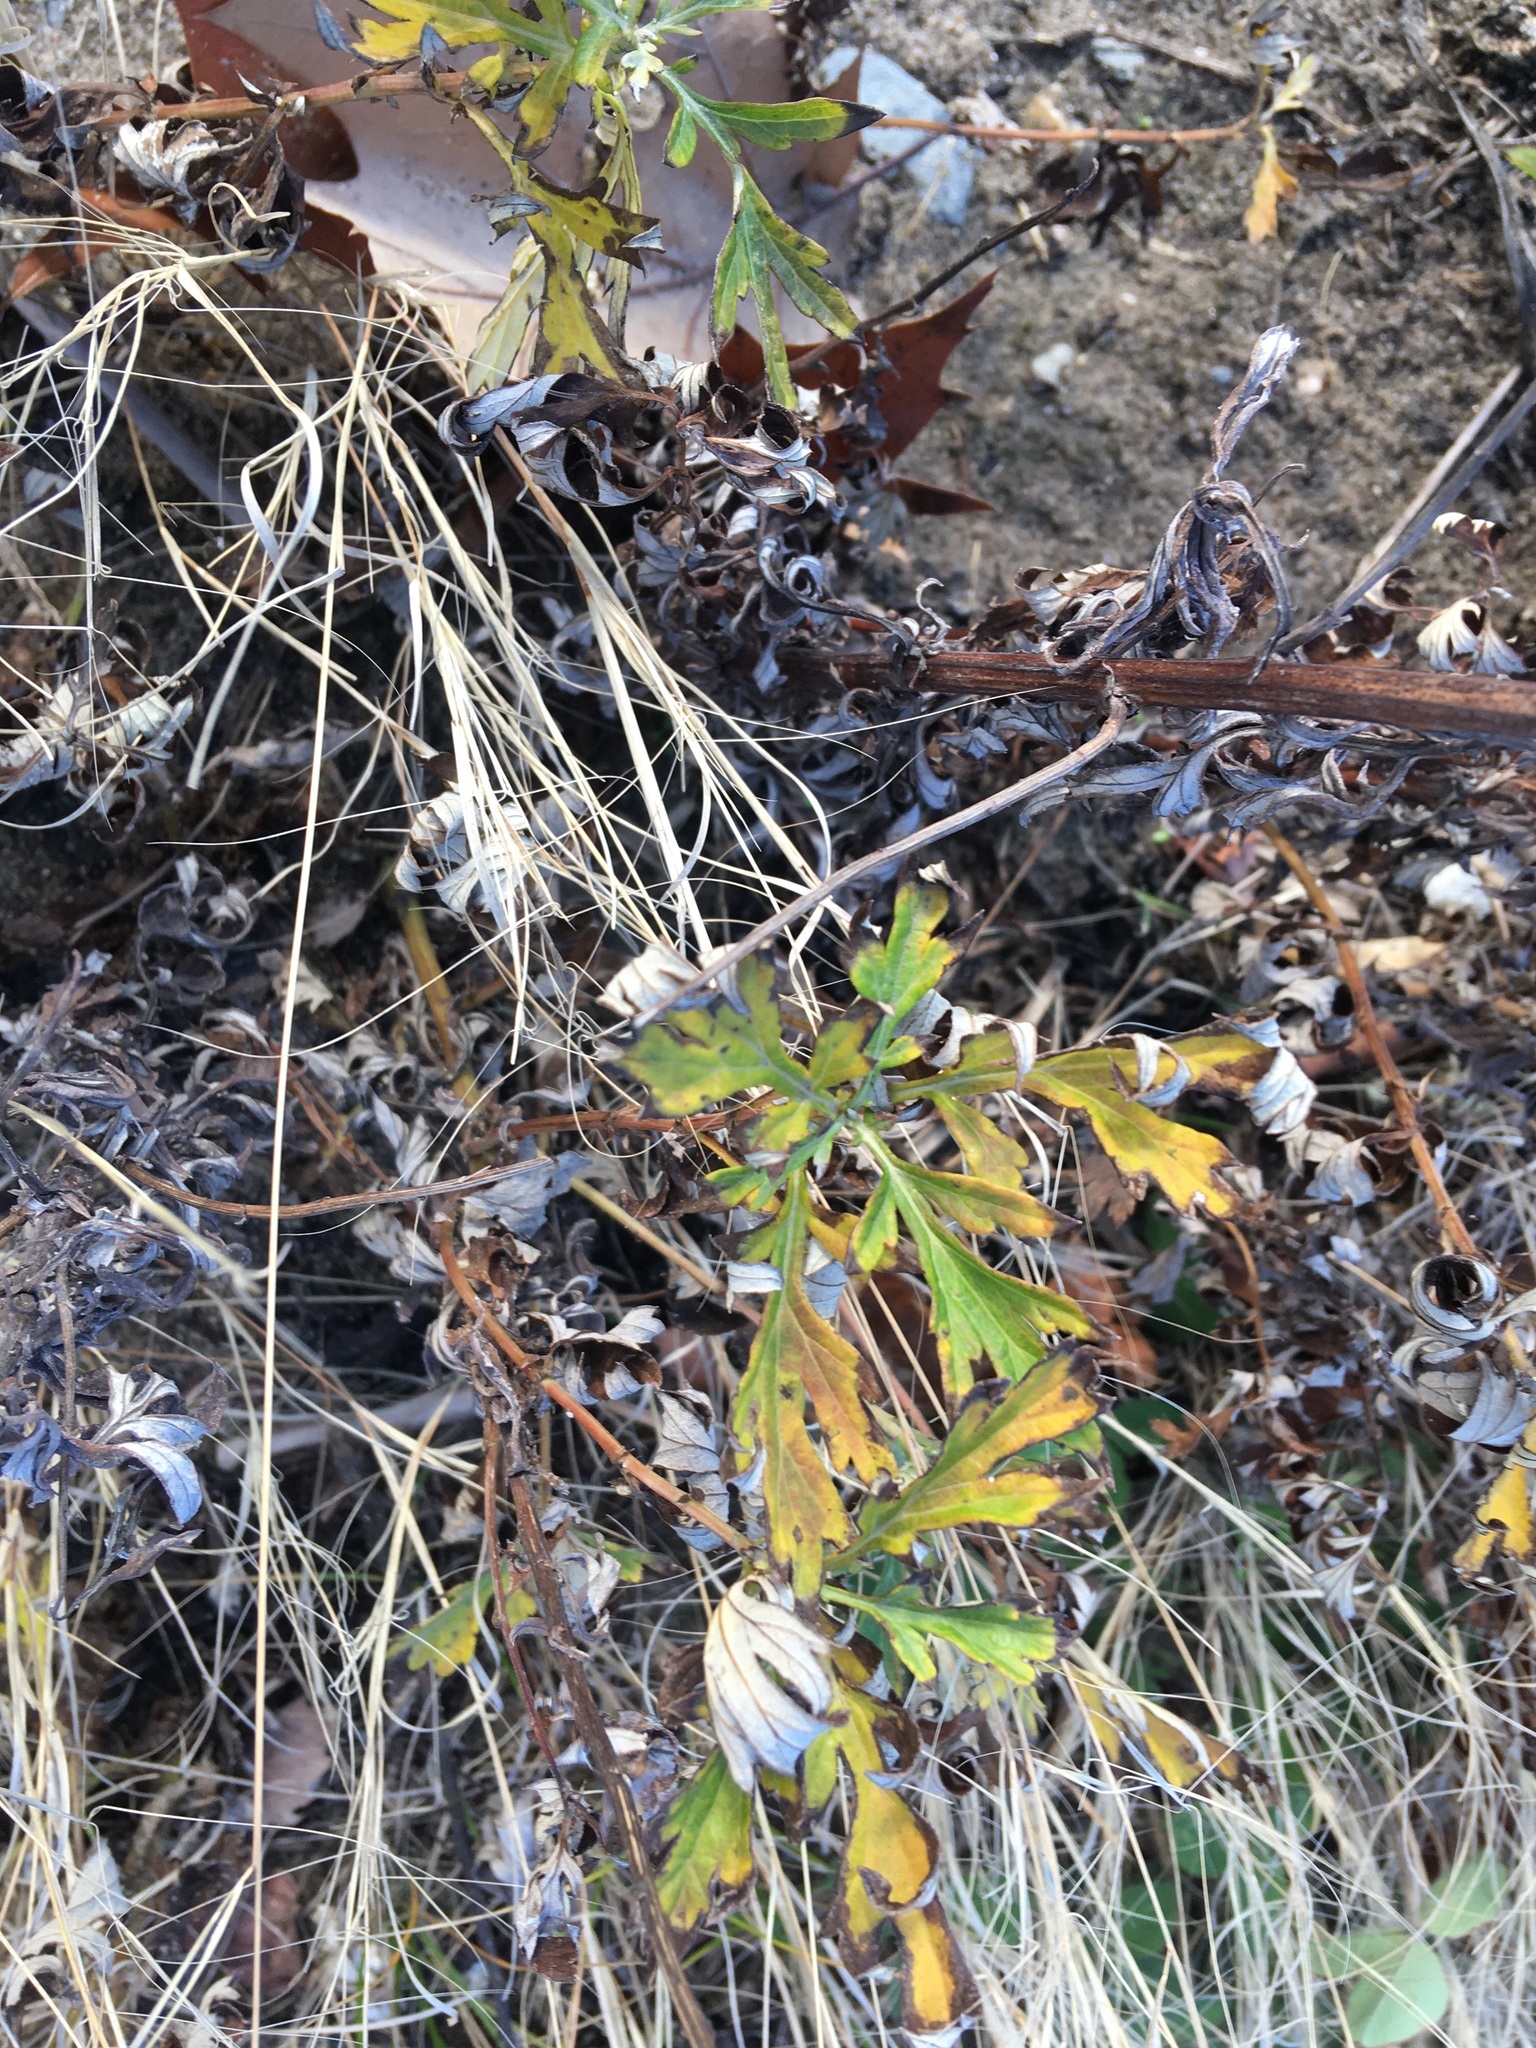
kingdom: Plantae
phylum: Tracheophyta
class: Magnoliopsida
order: Asterales
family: Asteraceae
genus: Artemisia
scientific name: Artemisia vulgaris
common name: Mugwort
